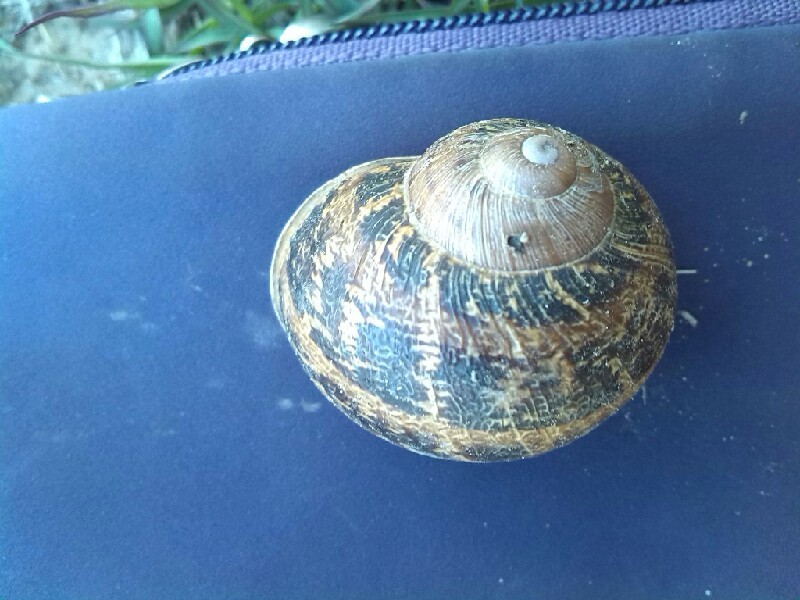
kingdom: Animalia
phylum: Mollusca
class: Gastropoda
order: Stylommatophora
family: Helicidae
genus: Cornu
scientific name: Cornu aspersum
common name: Brown garden snail
